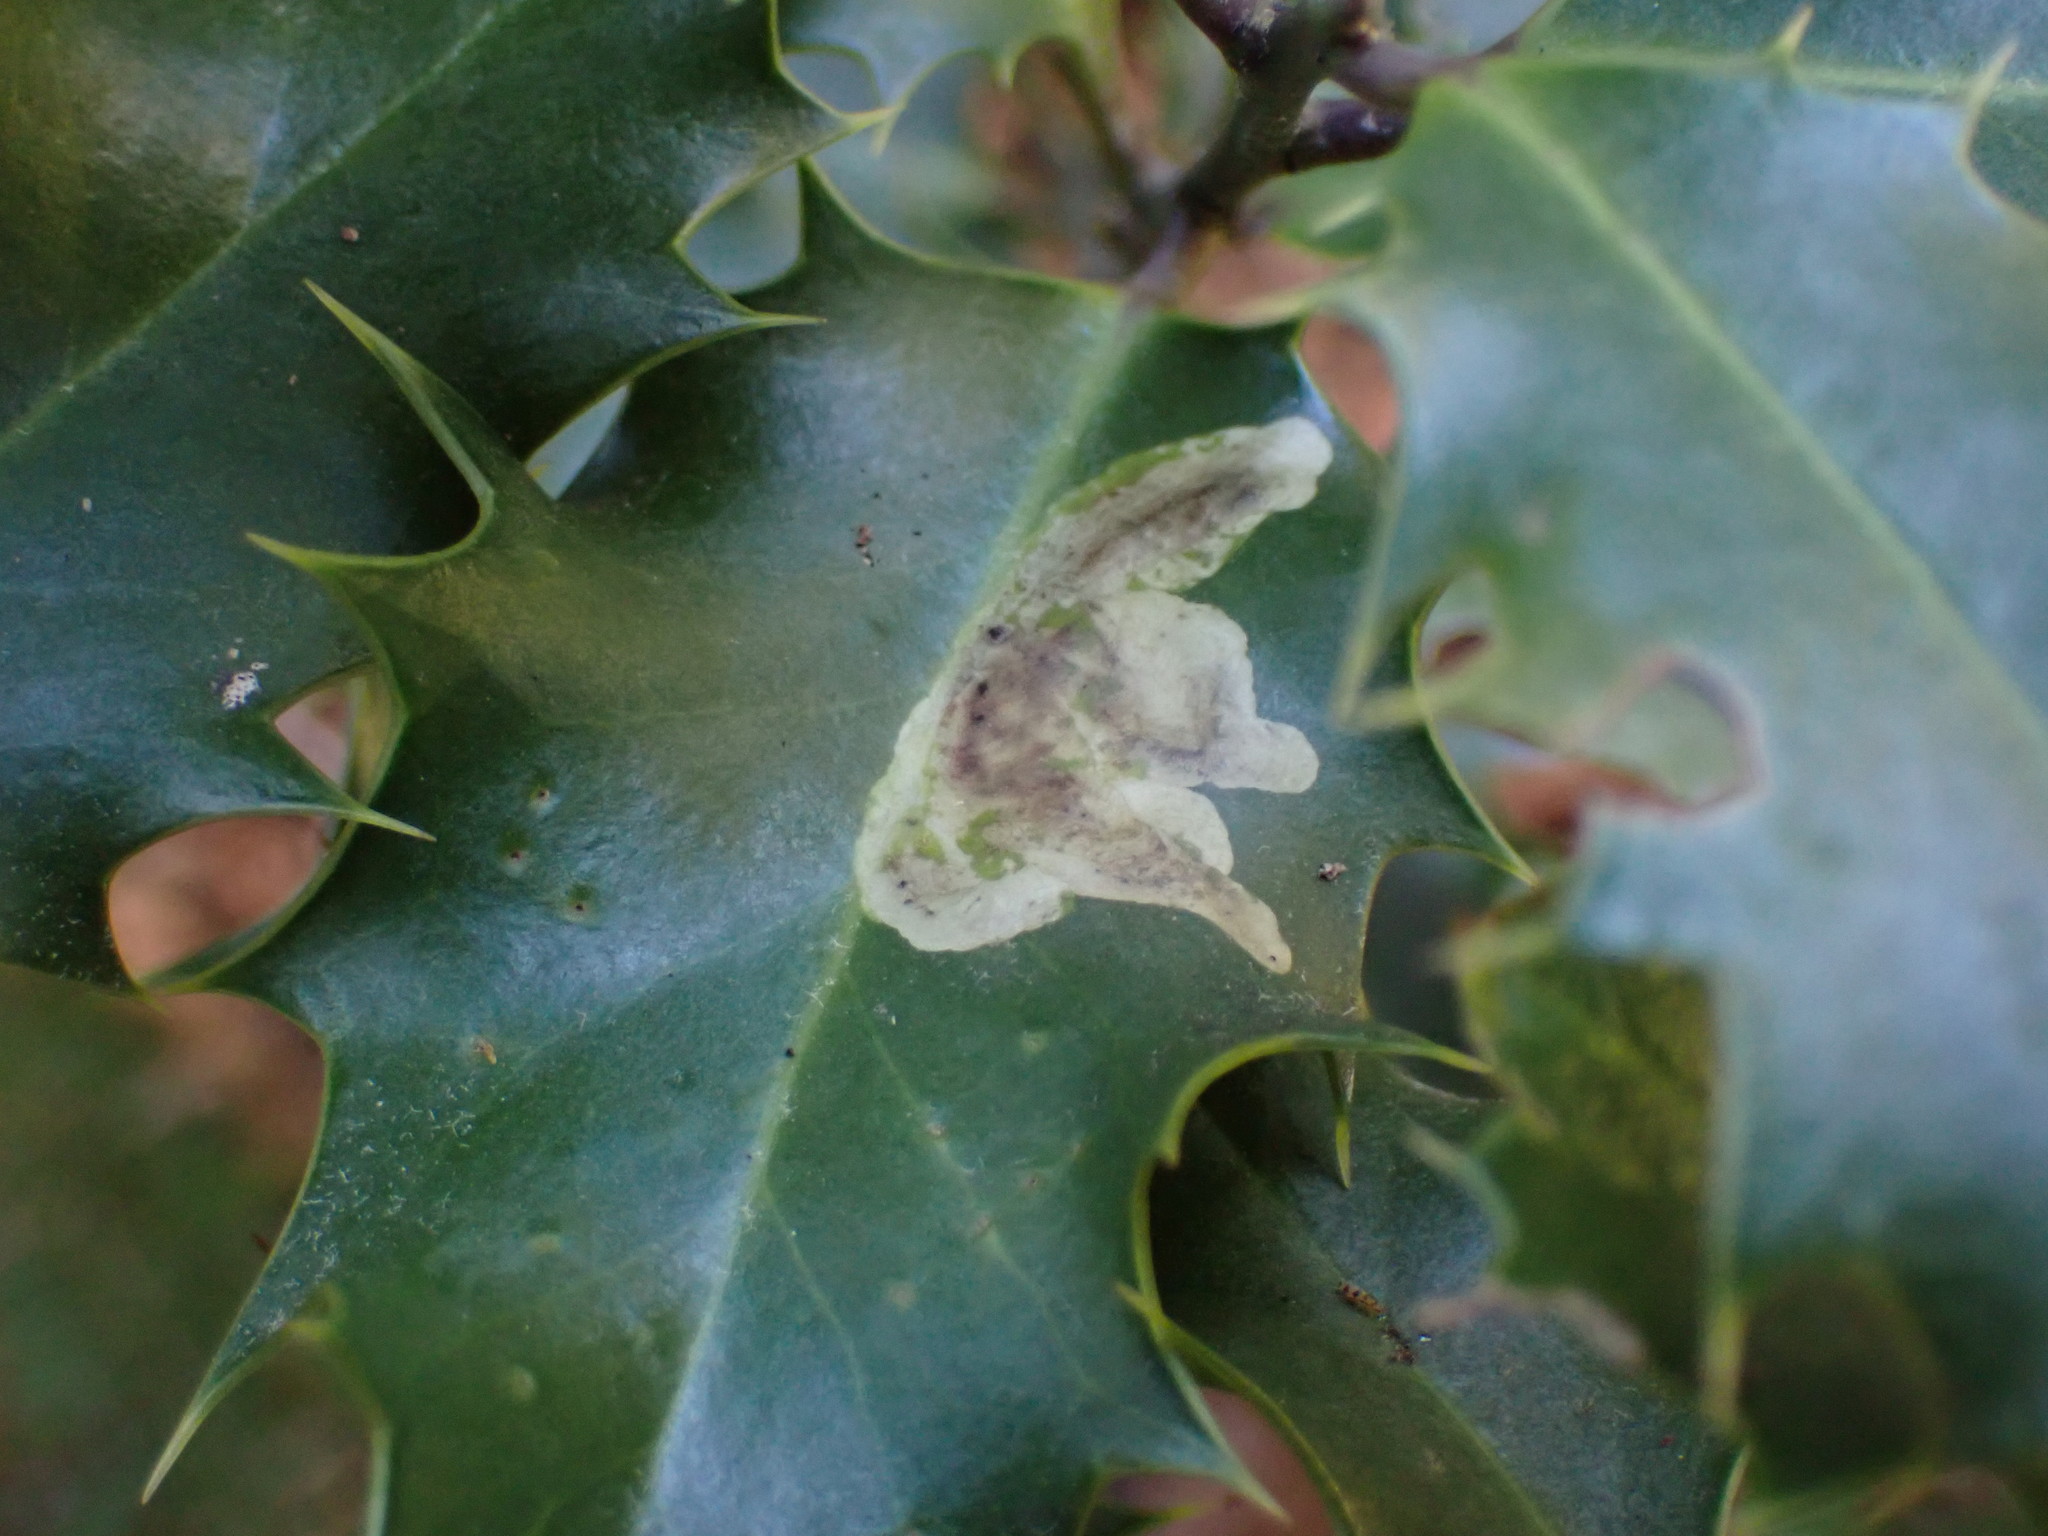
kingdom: Animalia
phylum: Arthropoda
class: Insecta
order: Diptera
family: Agromyzidae
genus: Phytomyza
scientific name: Phytomyza ilicis
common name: Holly leafminer
